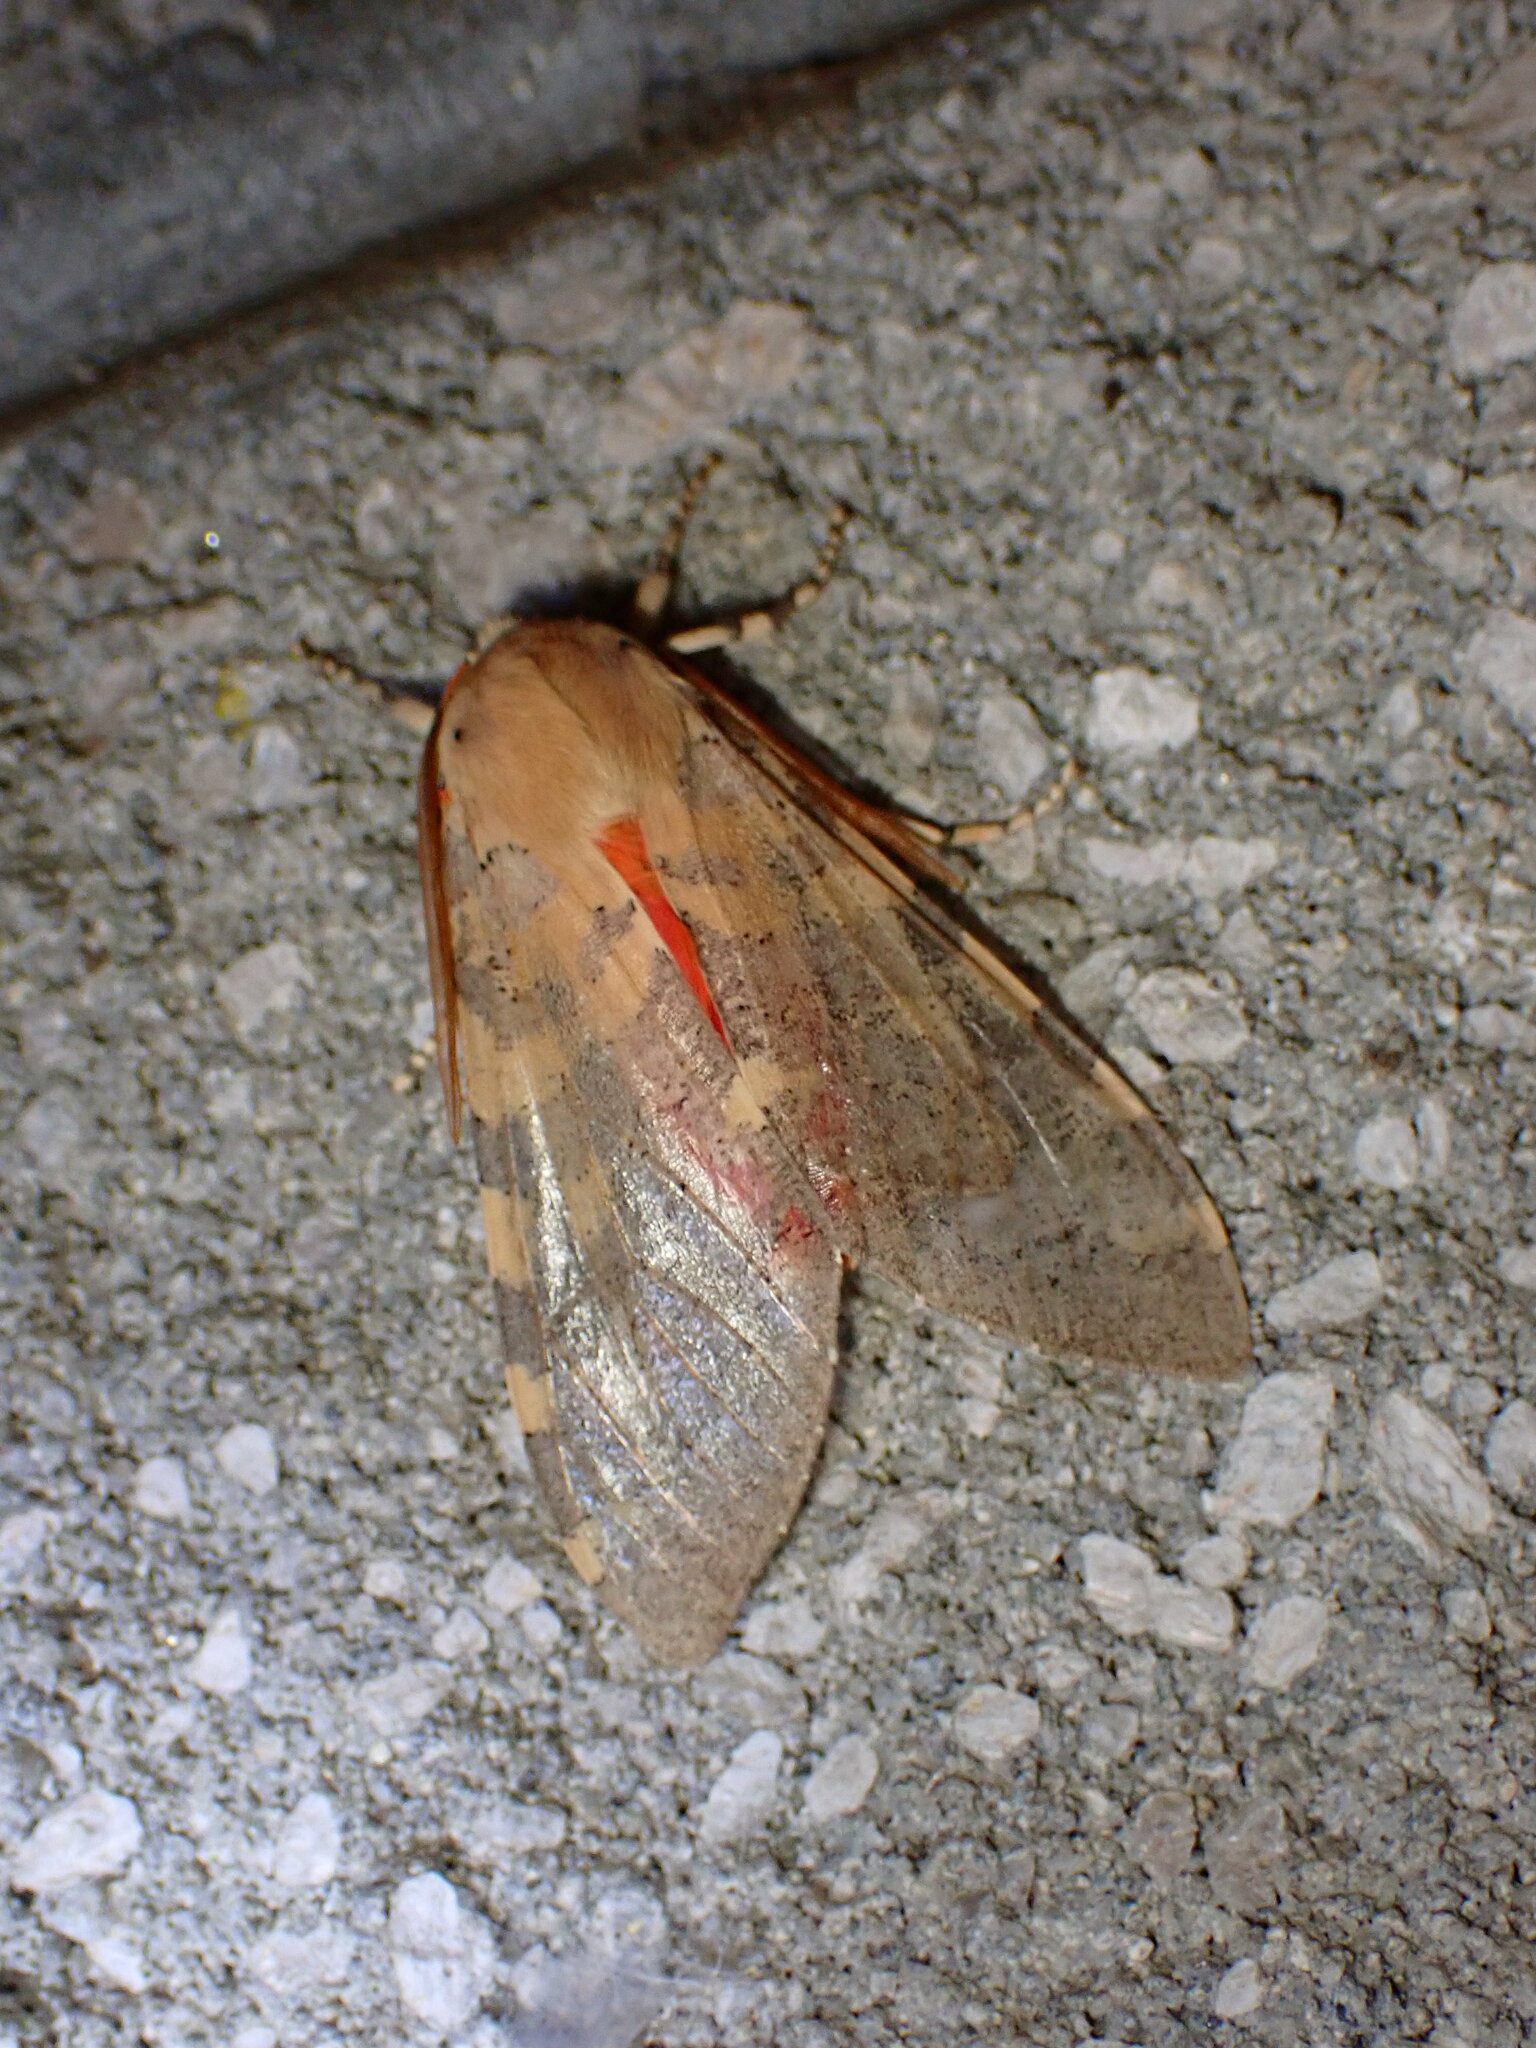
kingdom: Animalia
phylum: Arthropoda
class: Insecta
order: Lepidoptera
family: Erebidae
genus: Hemihyalea
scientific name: Hemihyalea edwardsii
